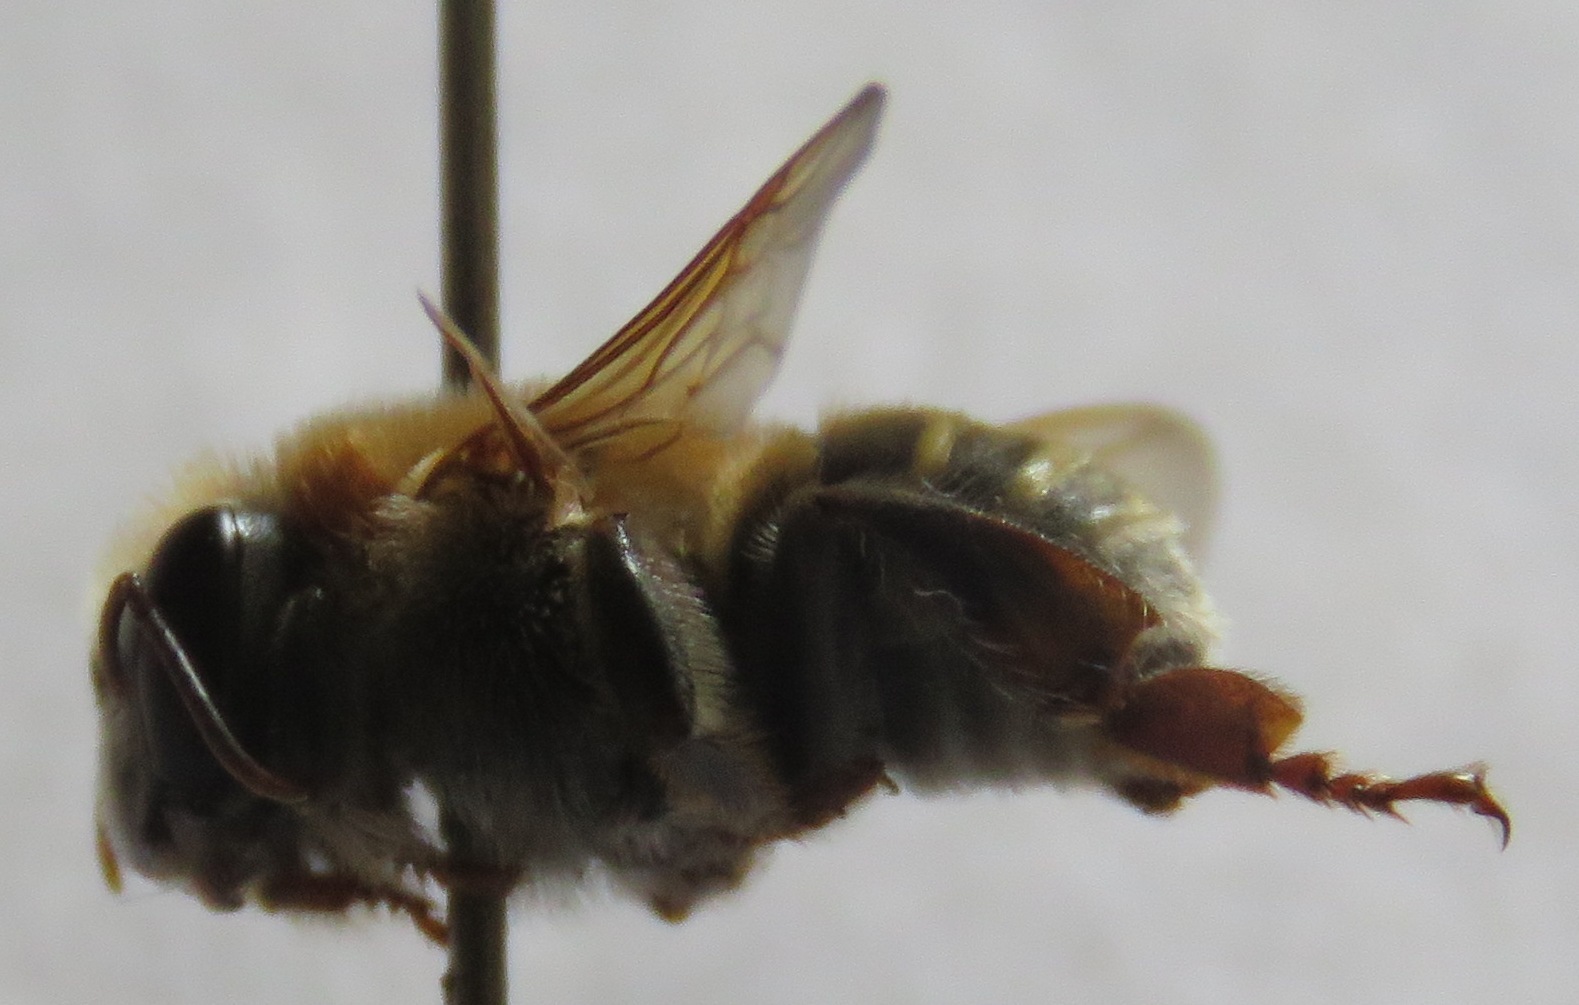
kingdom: Animalia
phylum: Arthropoda
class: Insecta
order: Hymenoptera
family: Apidae
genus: Melipona
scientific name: Melipona beecheii
